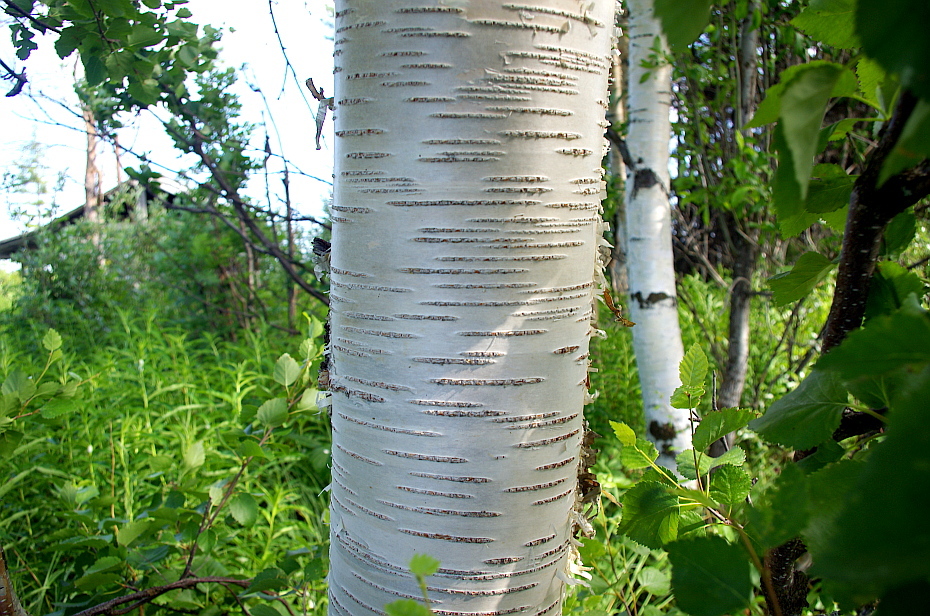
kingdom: Plantae
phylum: Tracheophyta
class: Magnoliopsida
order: Fagales
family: Betulaceae
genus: Betula
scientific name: Betula pendula
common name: Silver birch
